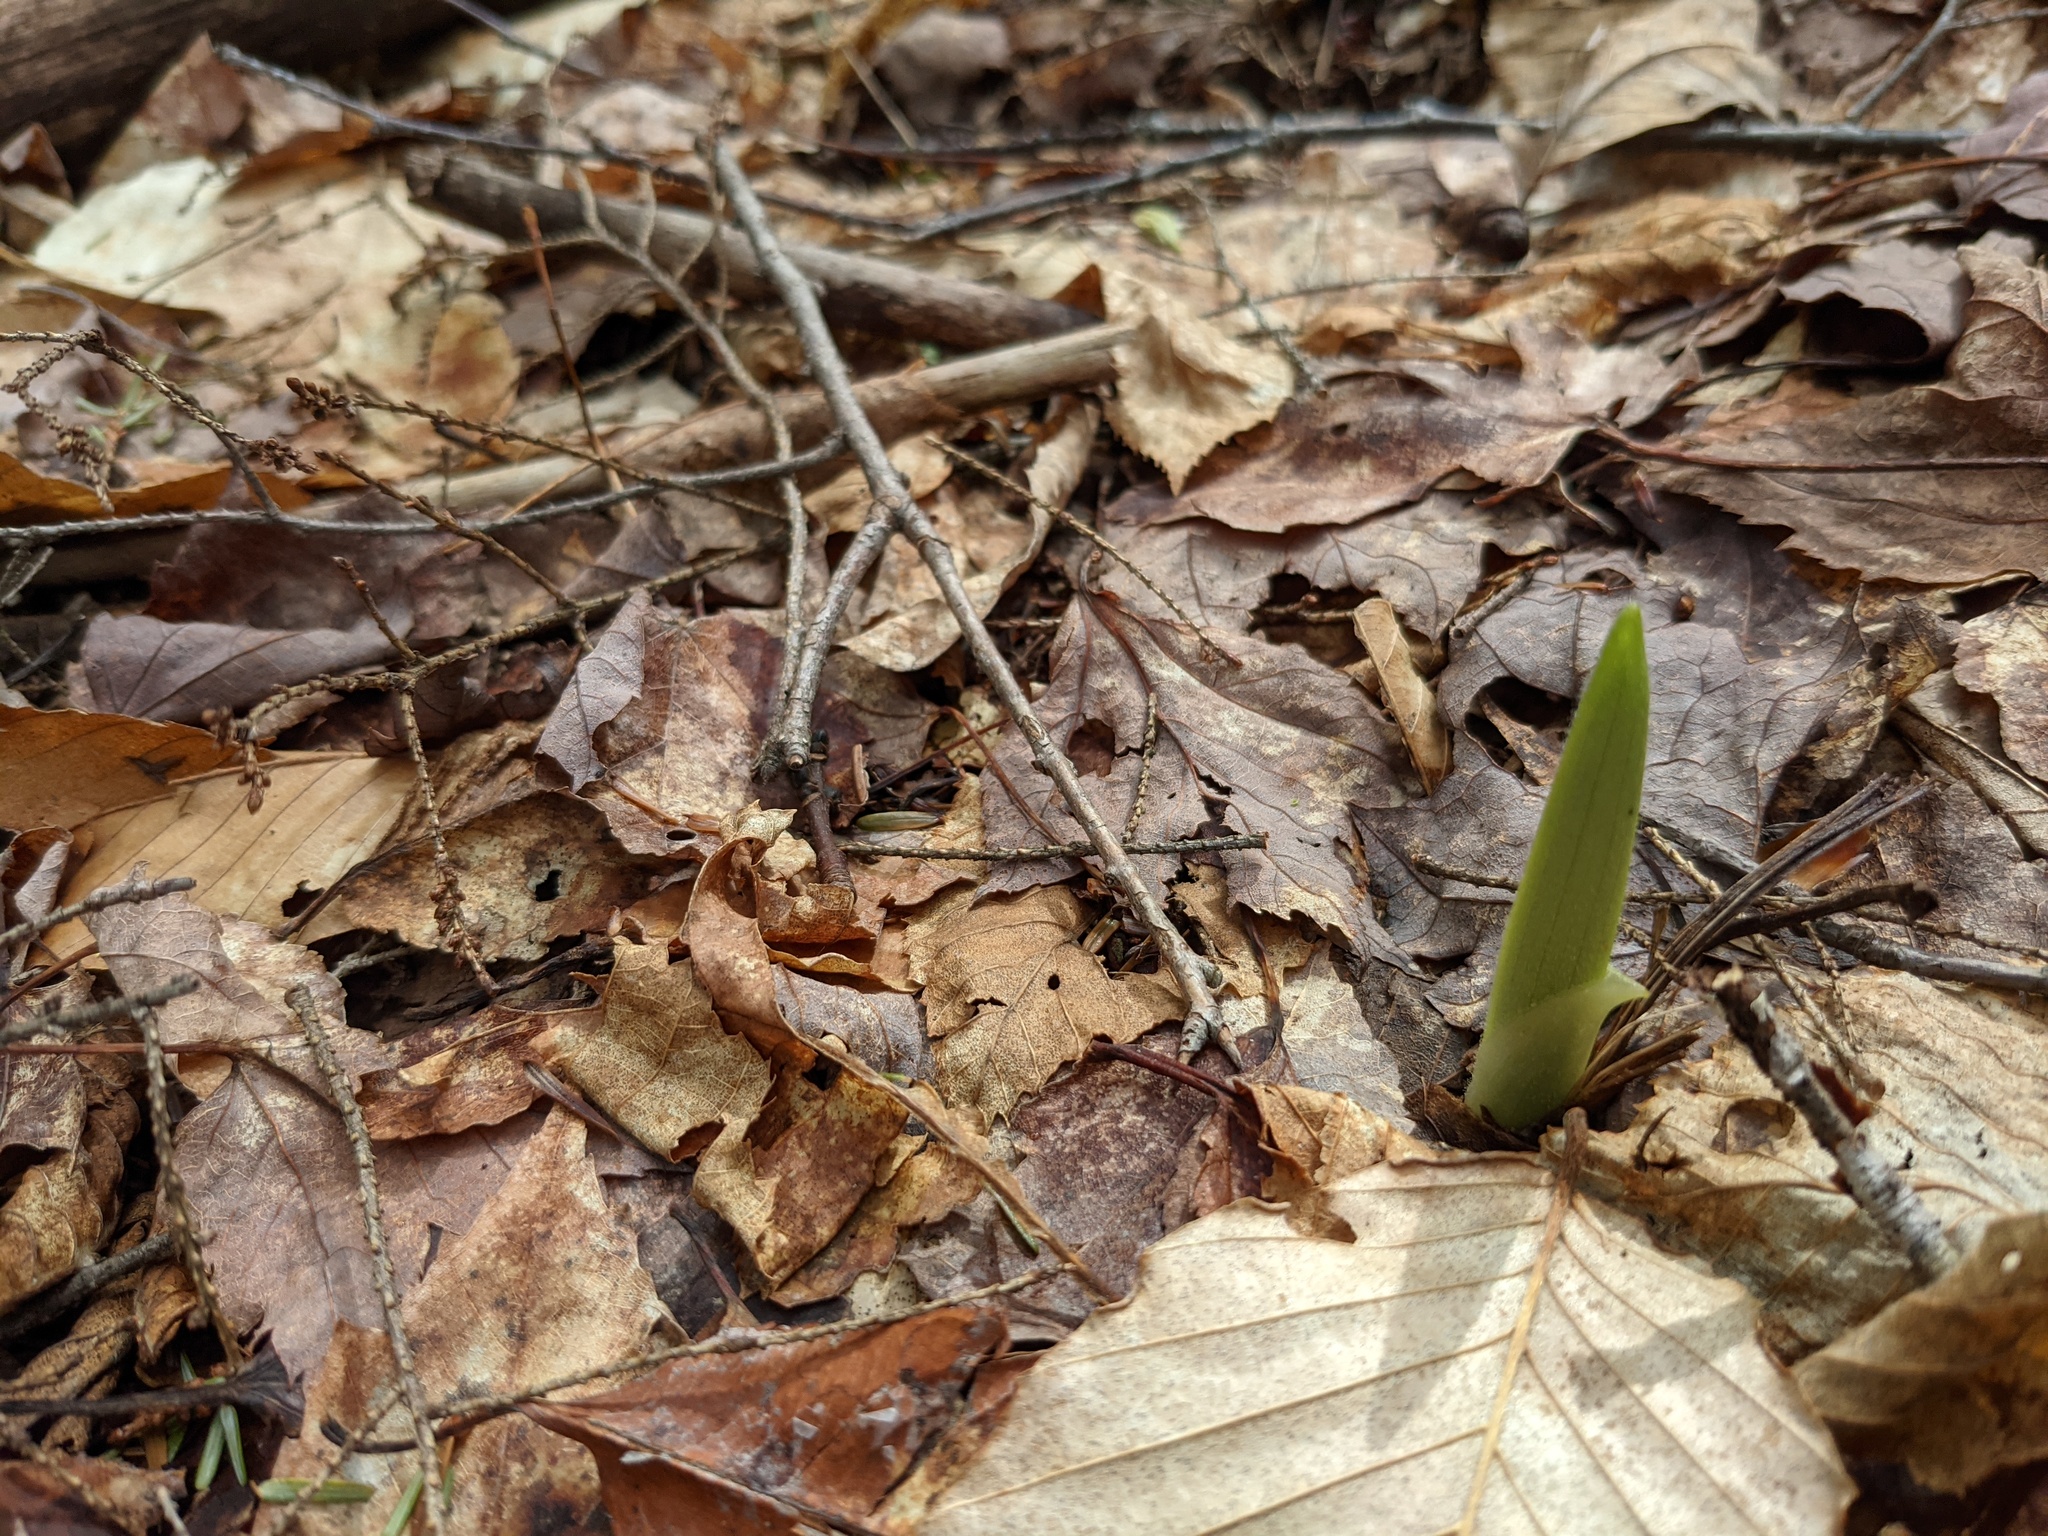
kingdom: Plantae
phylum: Tracheophyta
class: Liliopsida
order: Asparagales
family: Orchidaceae
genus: Cypripedium
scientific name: Cypripedium acaule
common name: Pink lady's-slipper
